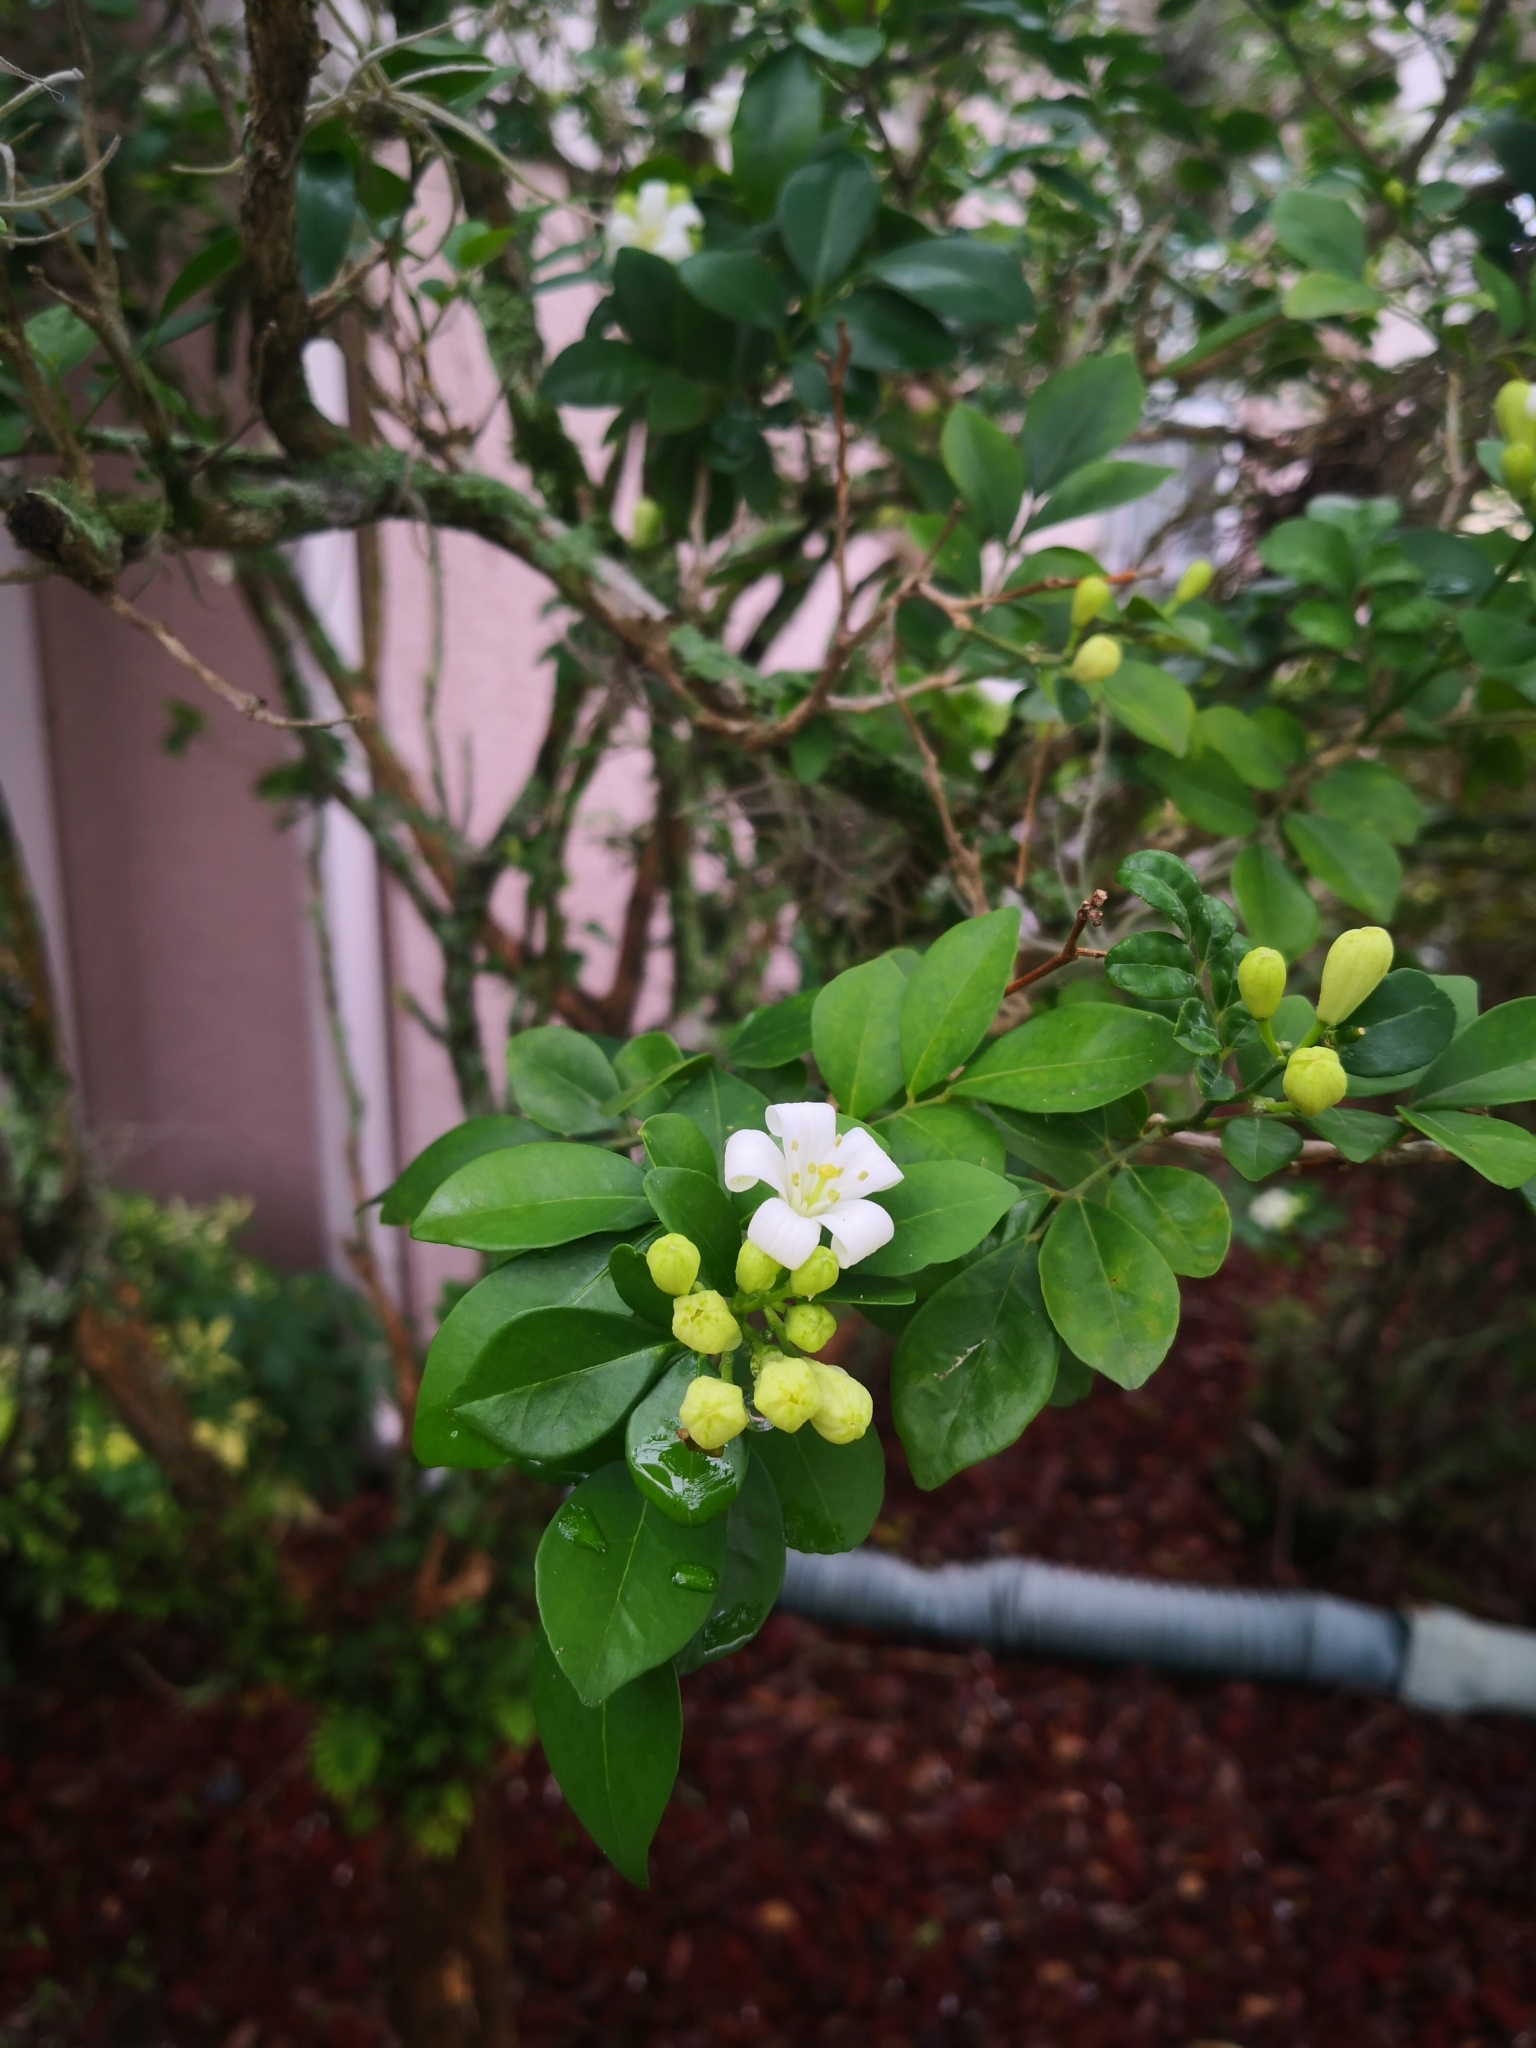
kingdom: Plantae
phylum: Tracheophyta
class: Magnoliopsida
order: Sapindales
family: Rutaceae
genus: Murraya
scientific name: Murraya paniculata
